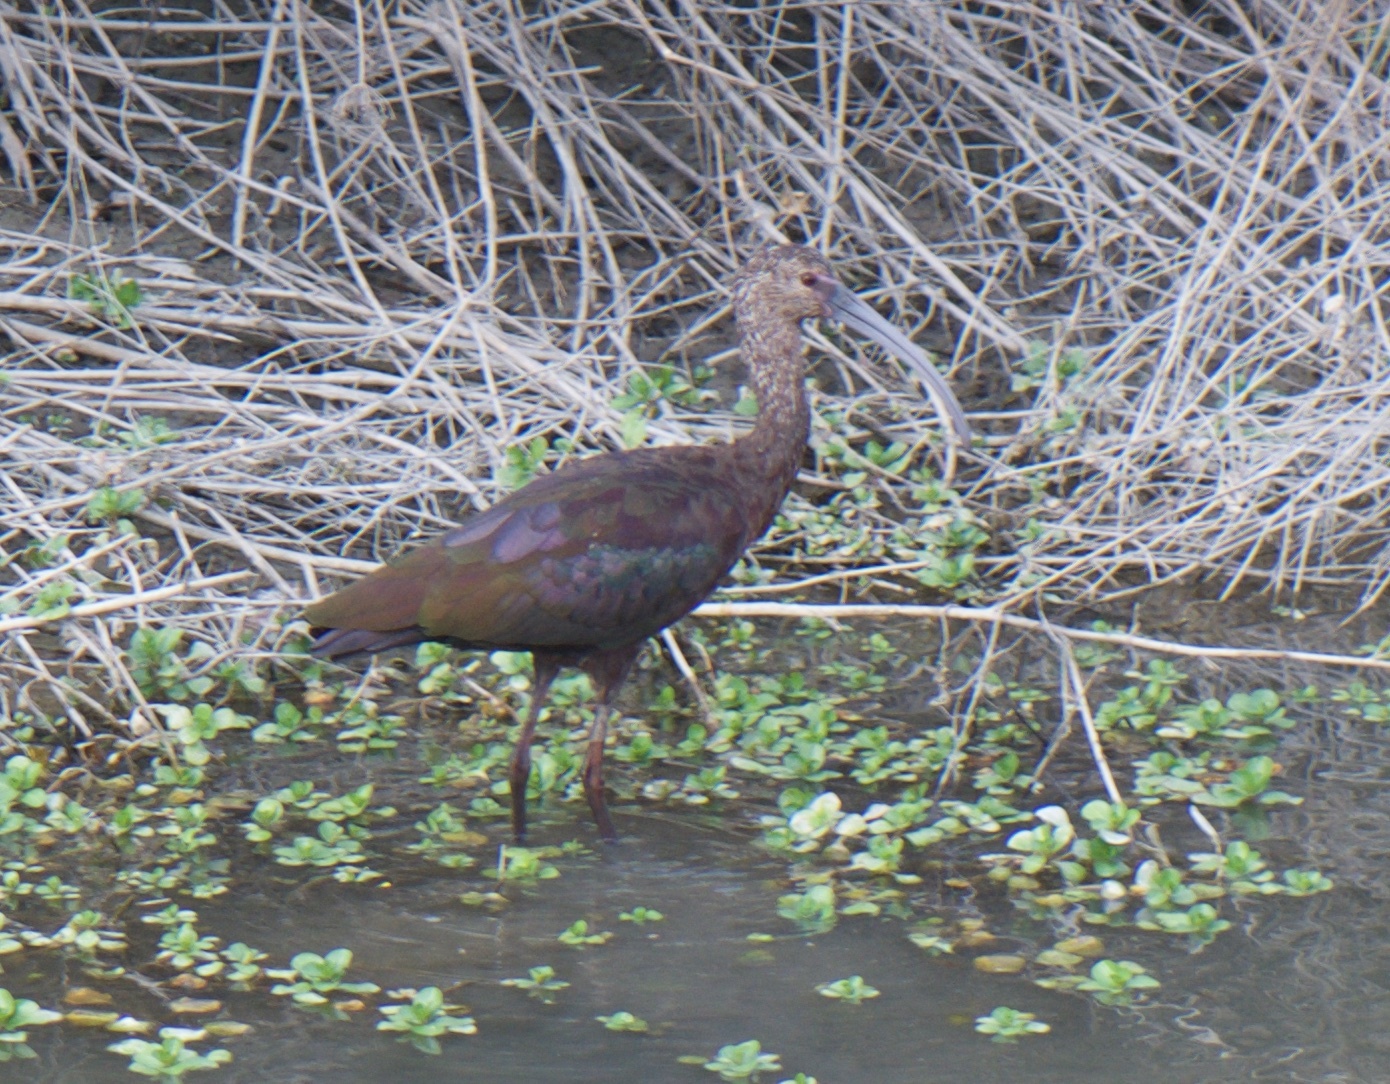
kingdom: Animalia
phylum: Chordata
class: Aves
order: Pelecaniformes
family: Threskiornithidae
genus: Plegadis
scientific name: Plegadis chihi
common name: White-faced ibis
